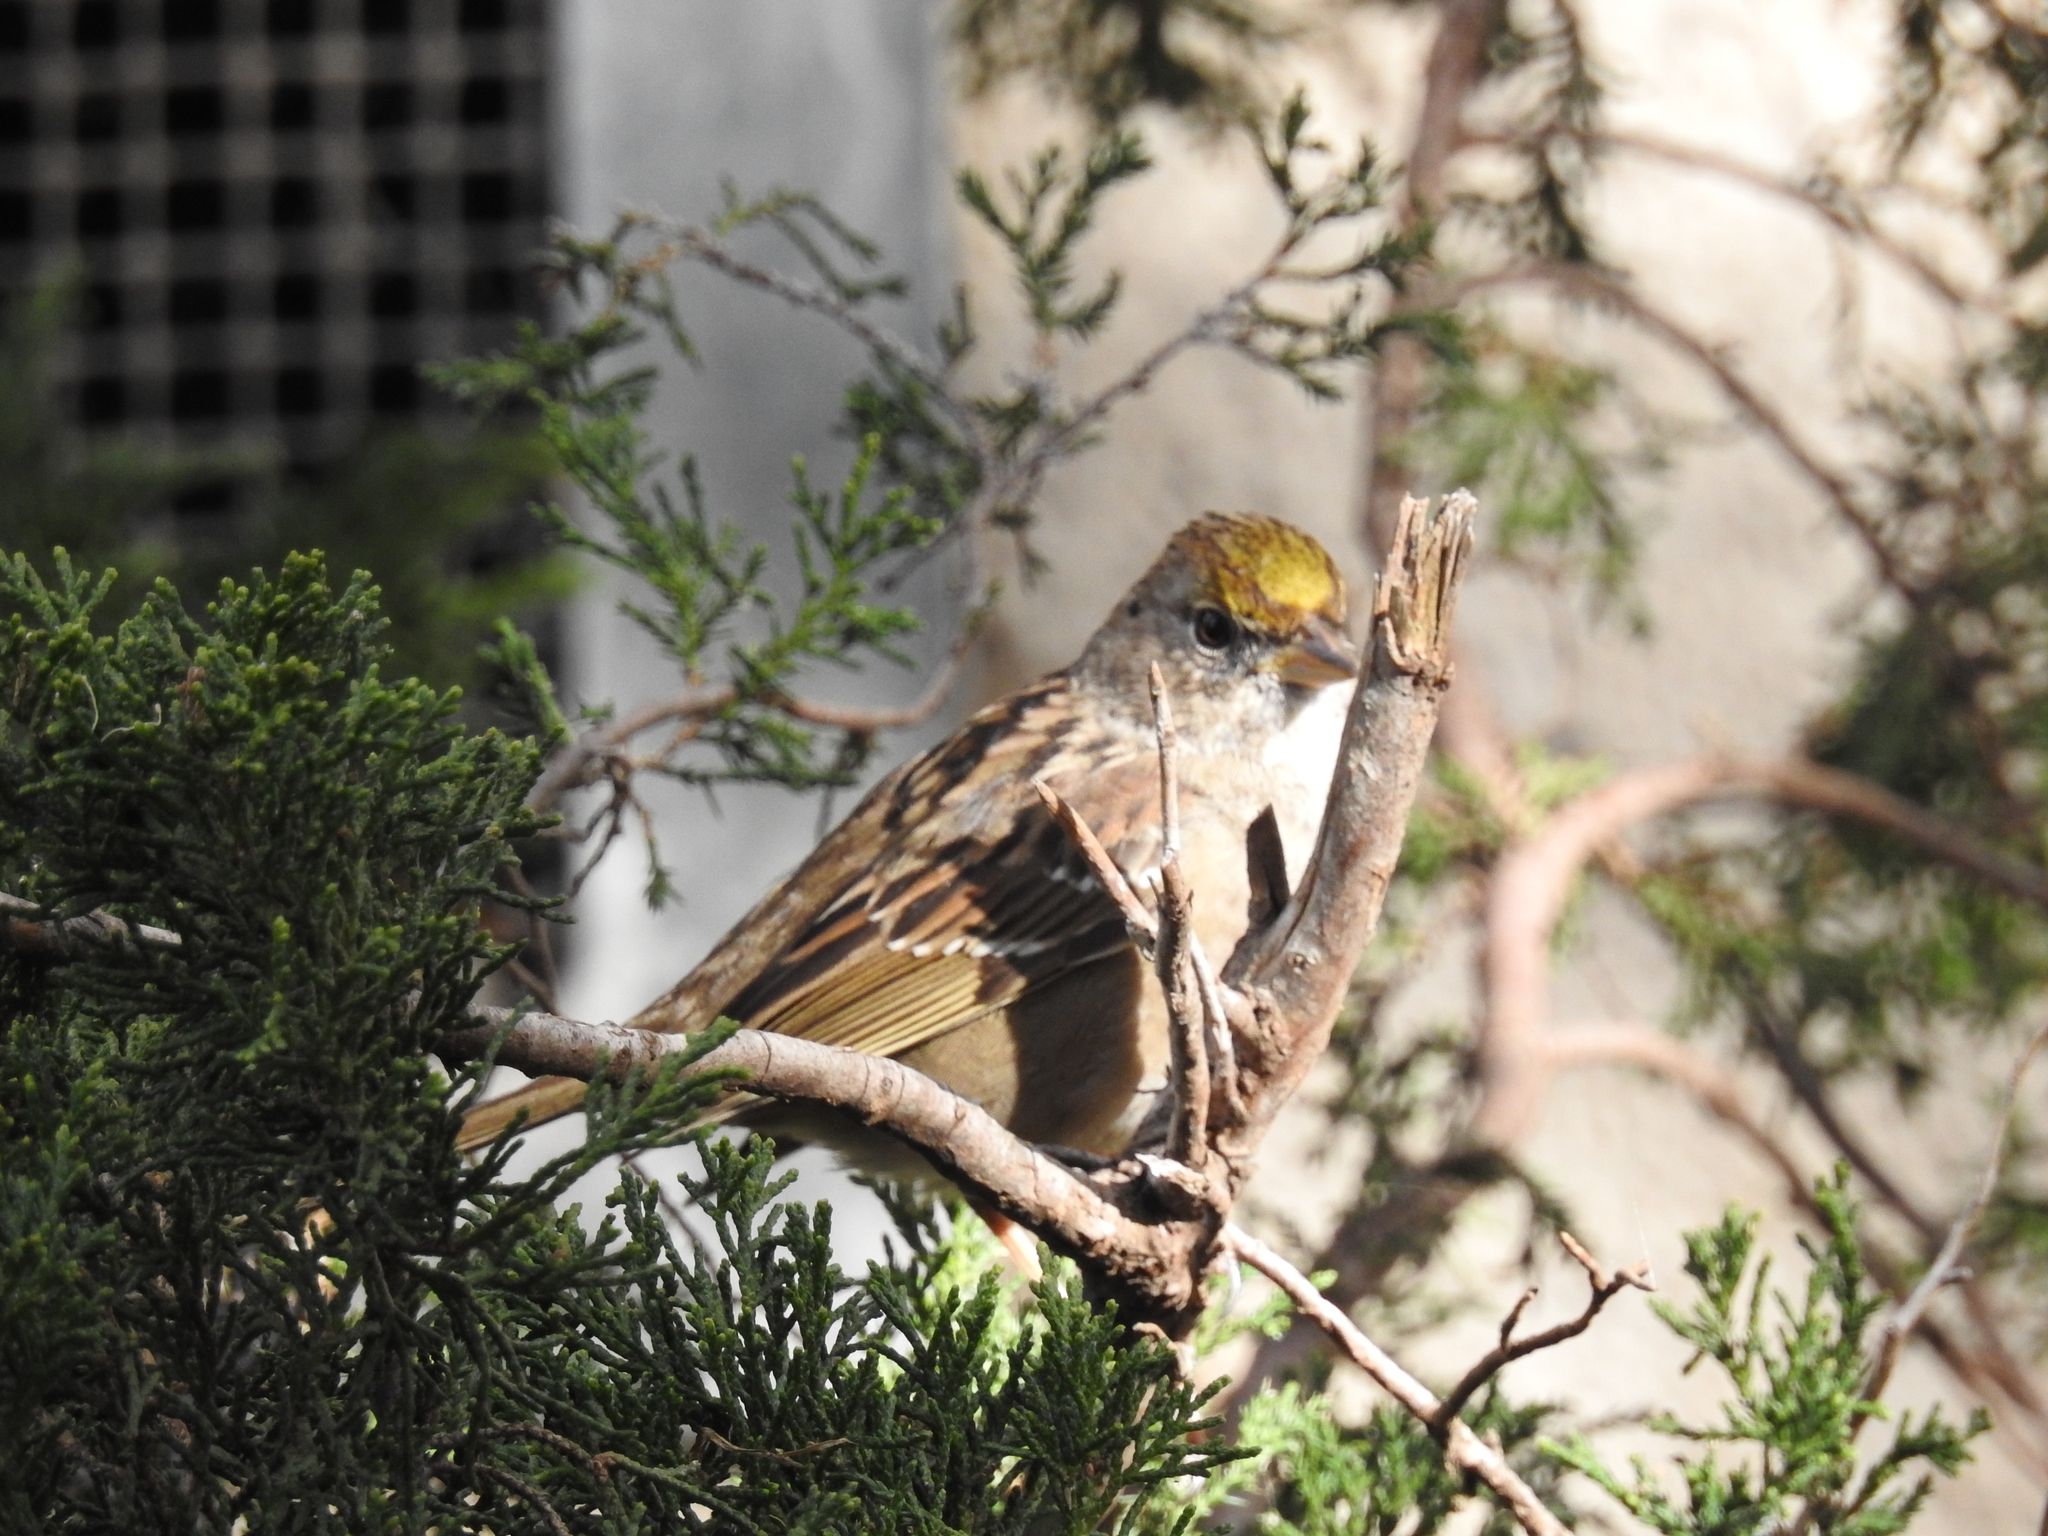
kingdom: Animalia
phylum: Chordata
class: Aves
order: Passeriformes
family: Passerellidae
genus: Zonotrichia
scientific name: Zonotrichia atricapilla
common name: Golden-crowned sparrow
